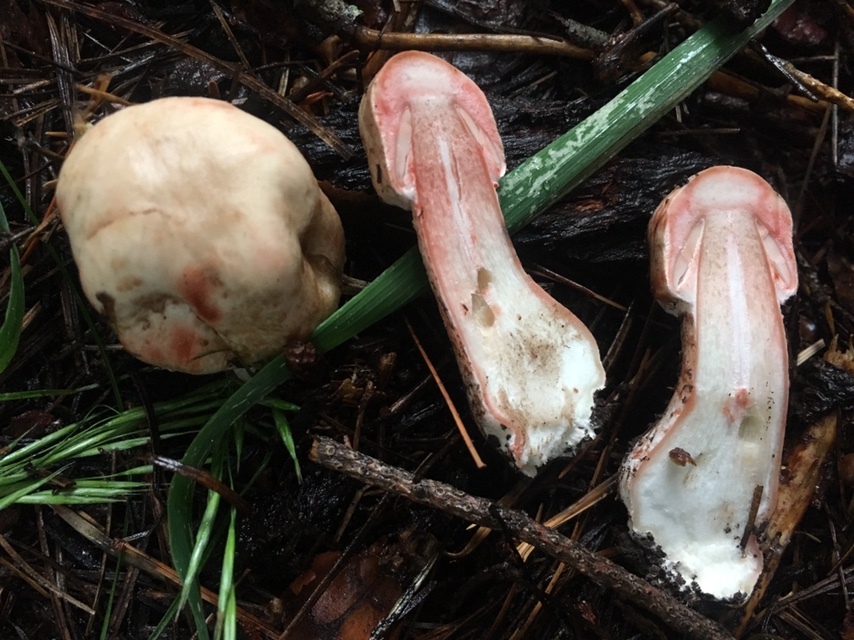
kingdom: Fungi
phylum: Basidiomycota
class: Agaricomycetes
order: Agaricales
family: Agaricaceae
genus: Agaricus
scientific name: Agaricus sylvaticus
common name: Blushing wood mushroom
